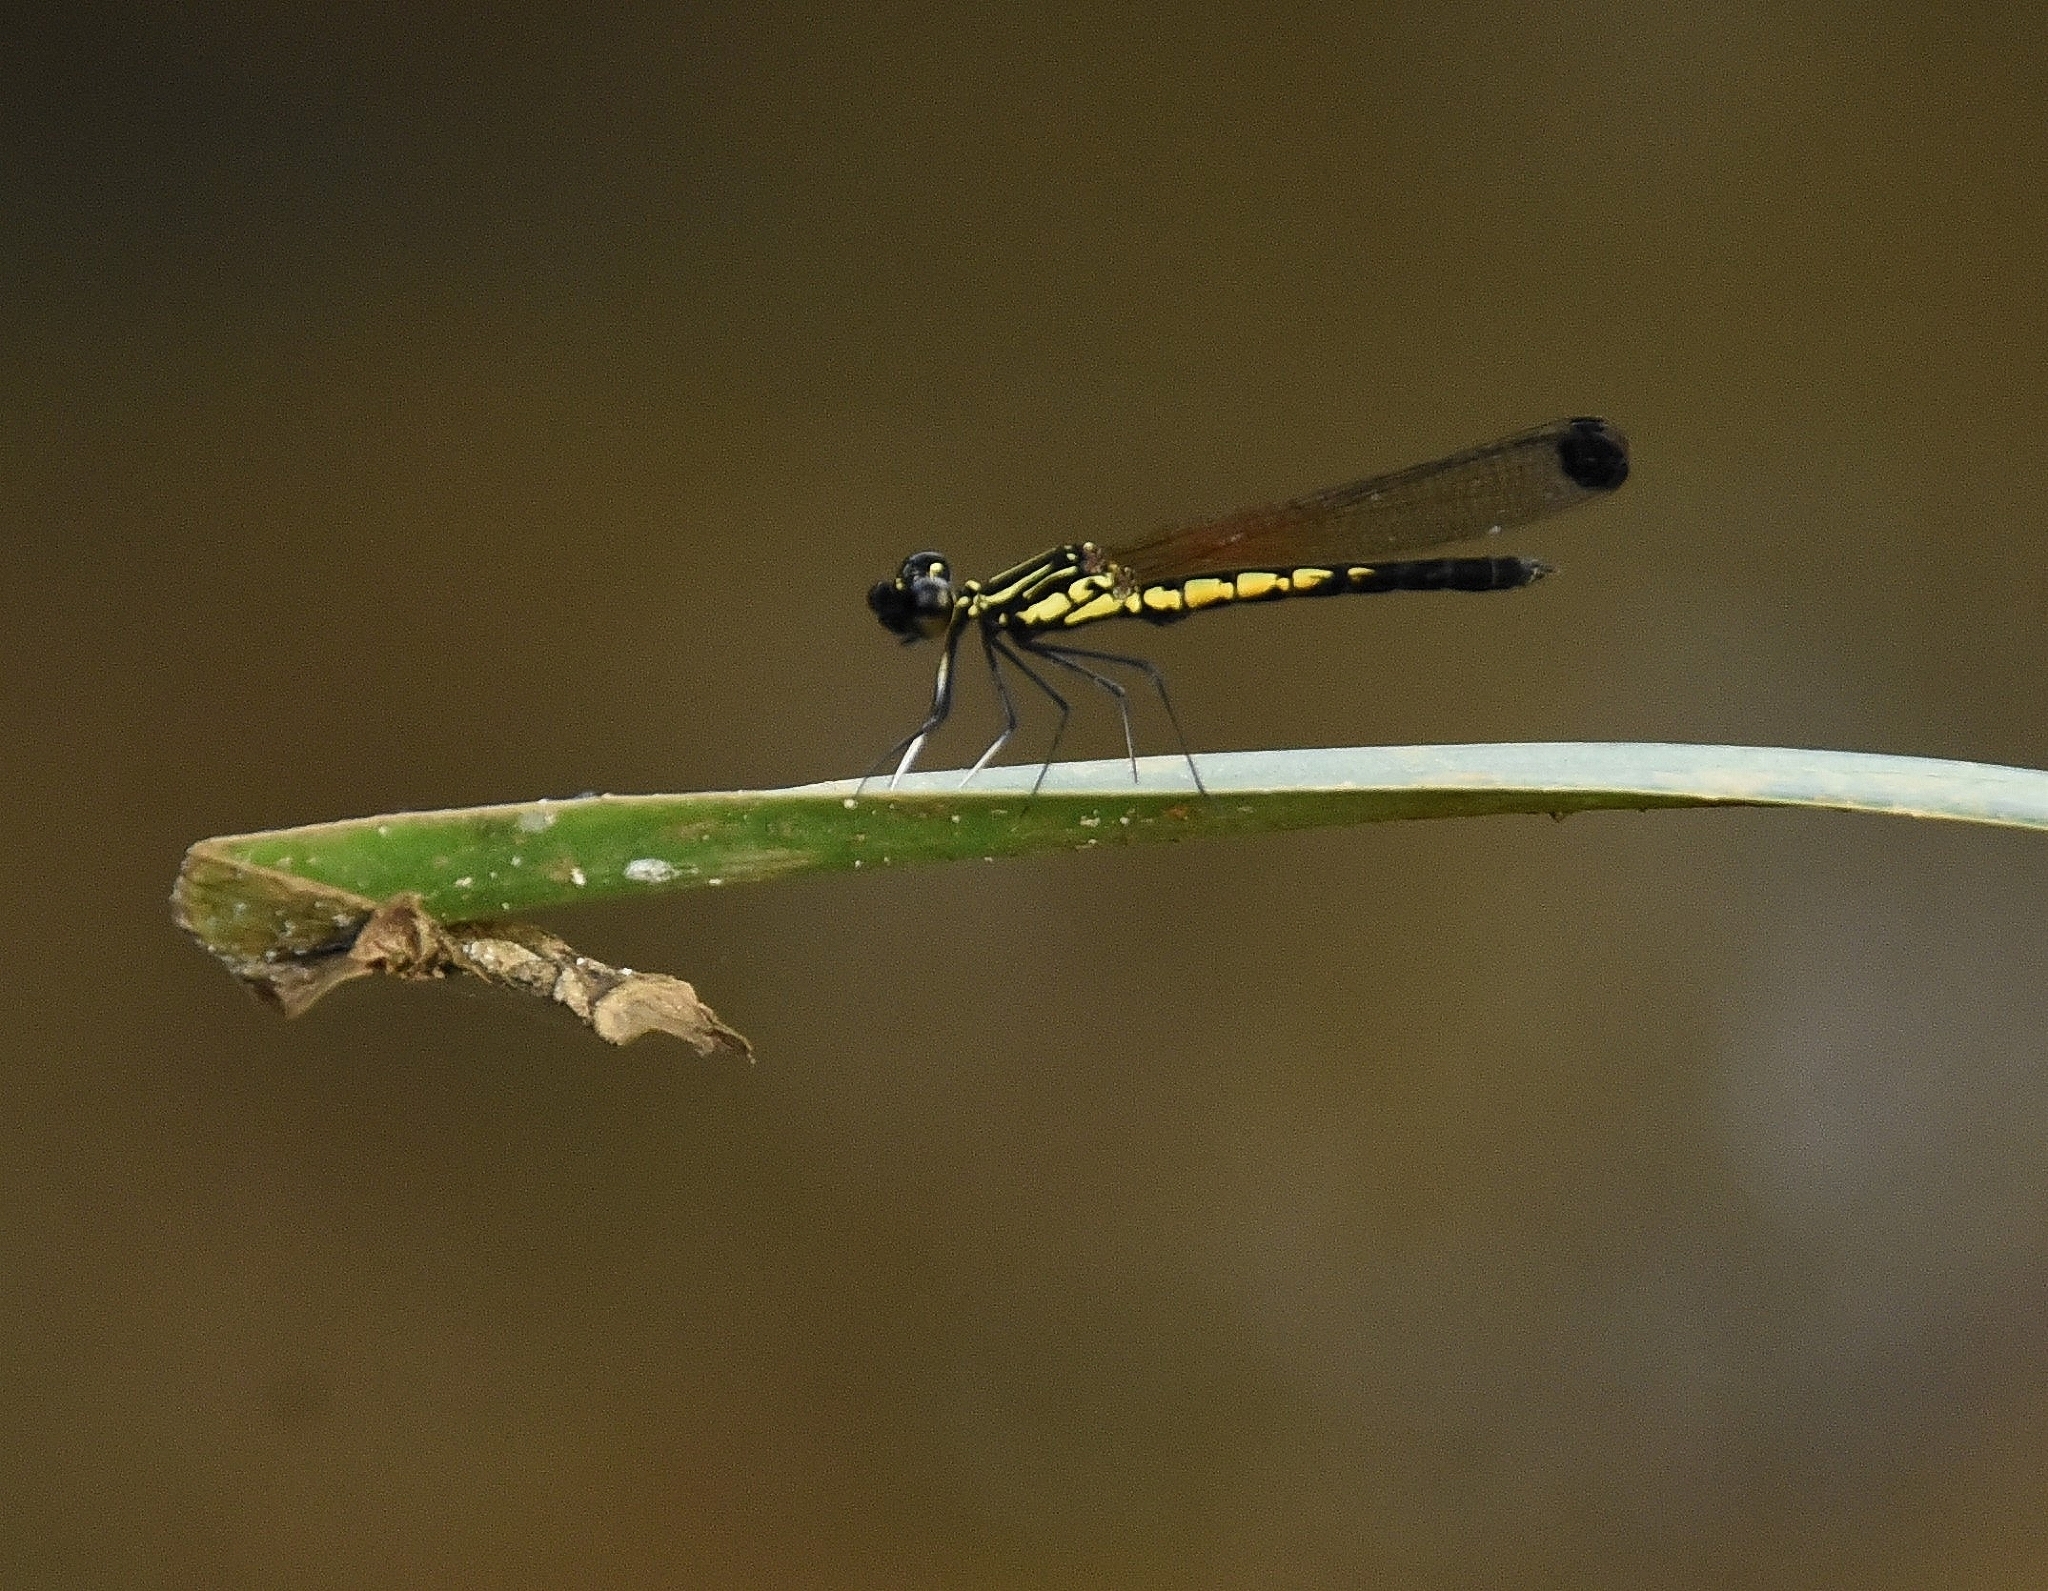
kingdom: Animalia
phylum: Arthropoda
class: Insecta
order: Odonata
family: Chlorocyphidae
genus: Libellago
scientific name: Libellago indica
